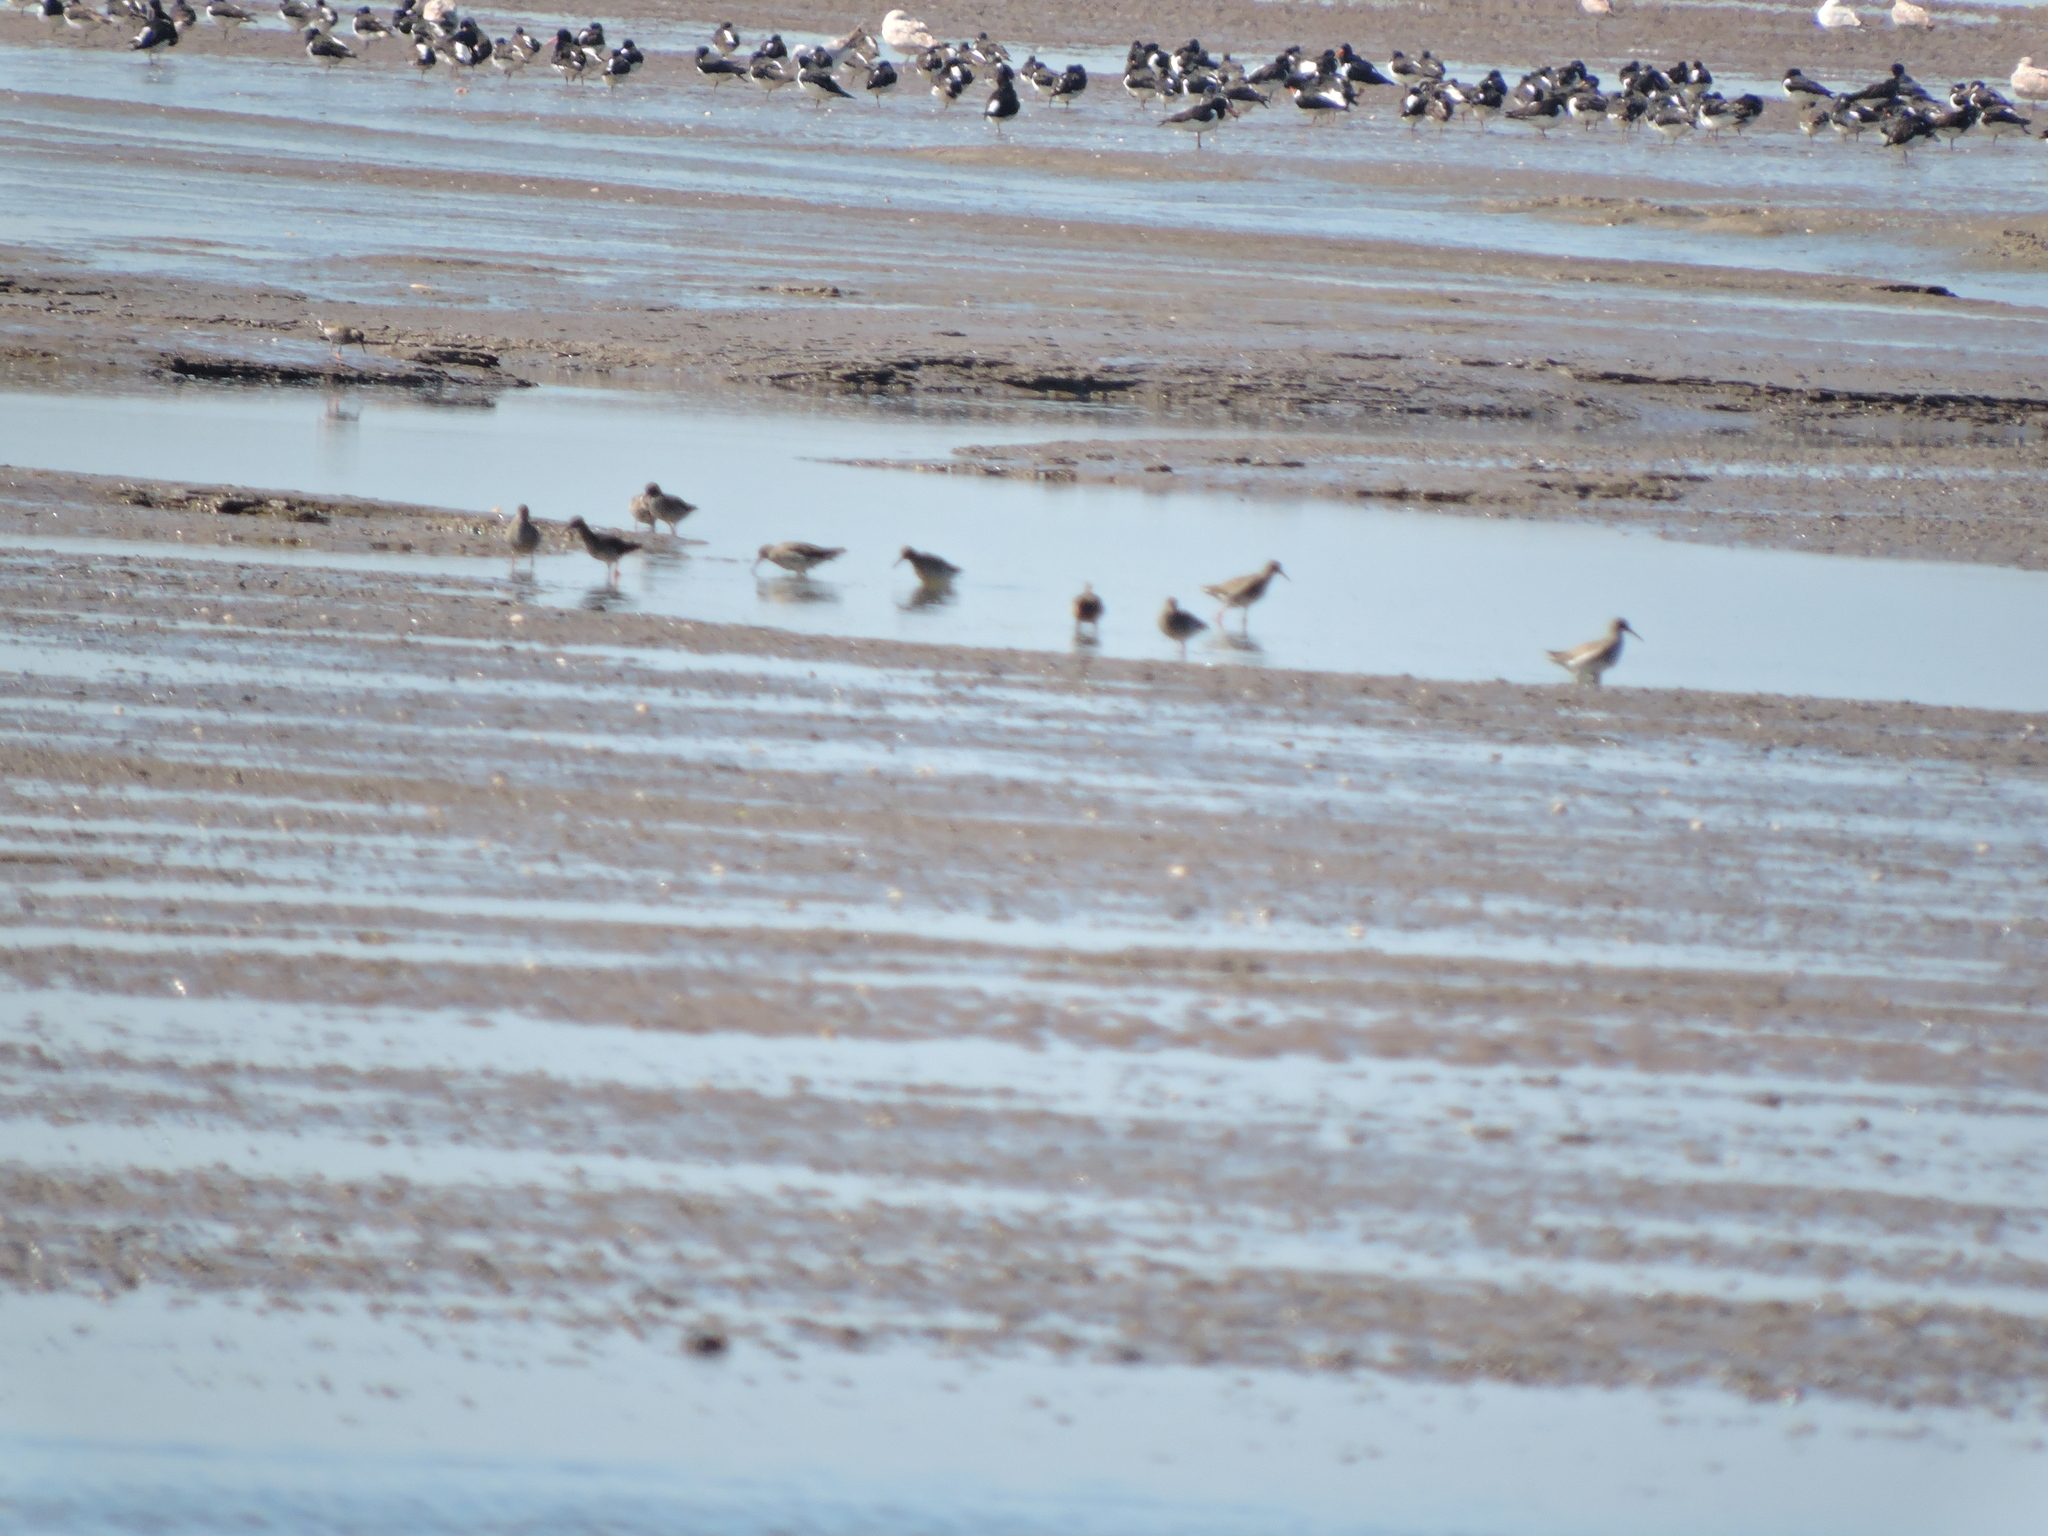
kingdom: Animalia
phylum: Chordata
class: Aves
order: Charadriiformes
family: Haematopodidae
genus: Haematopus
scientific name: Haematopus ostralegus
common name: Eurasian oystercatcher
